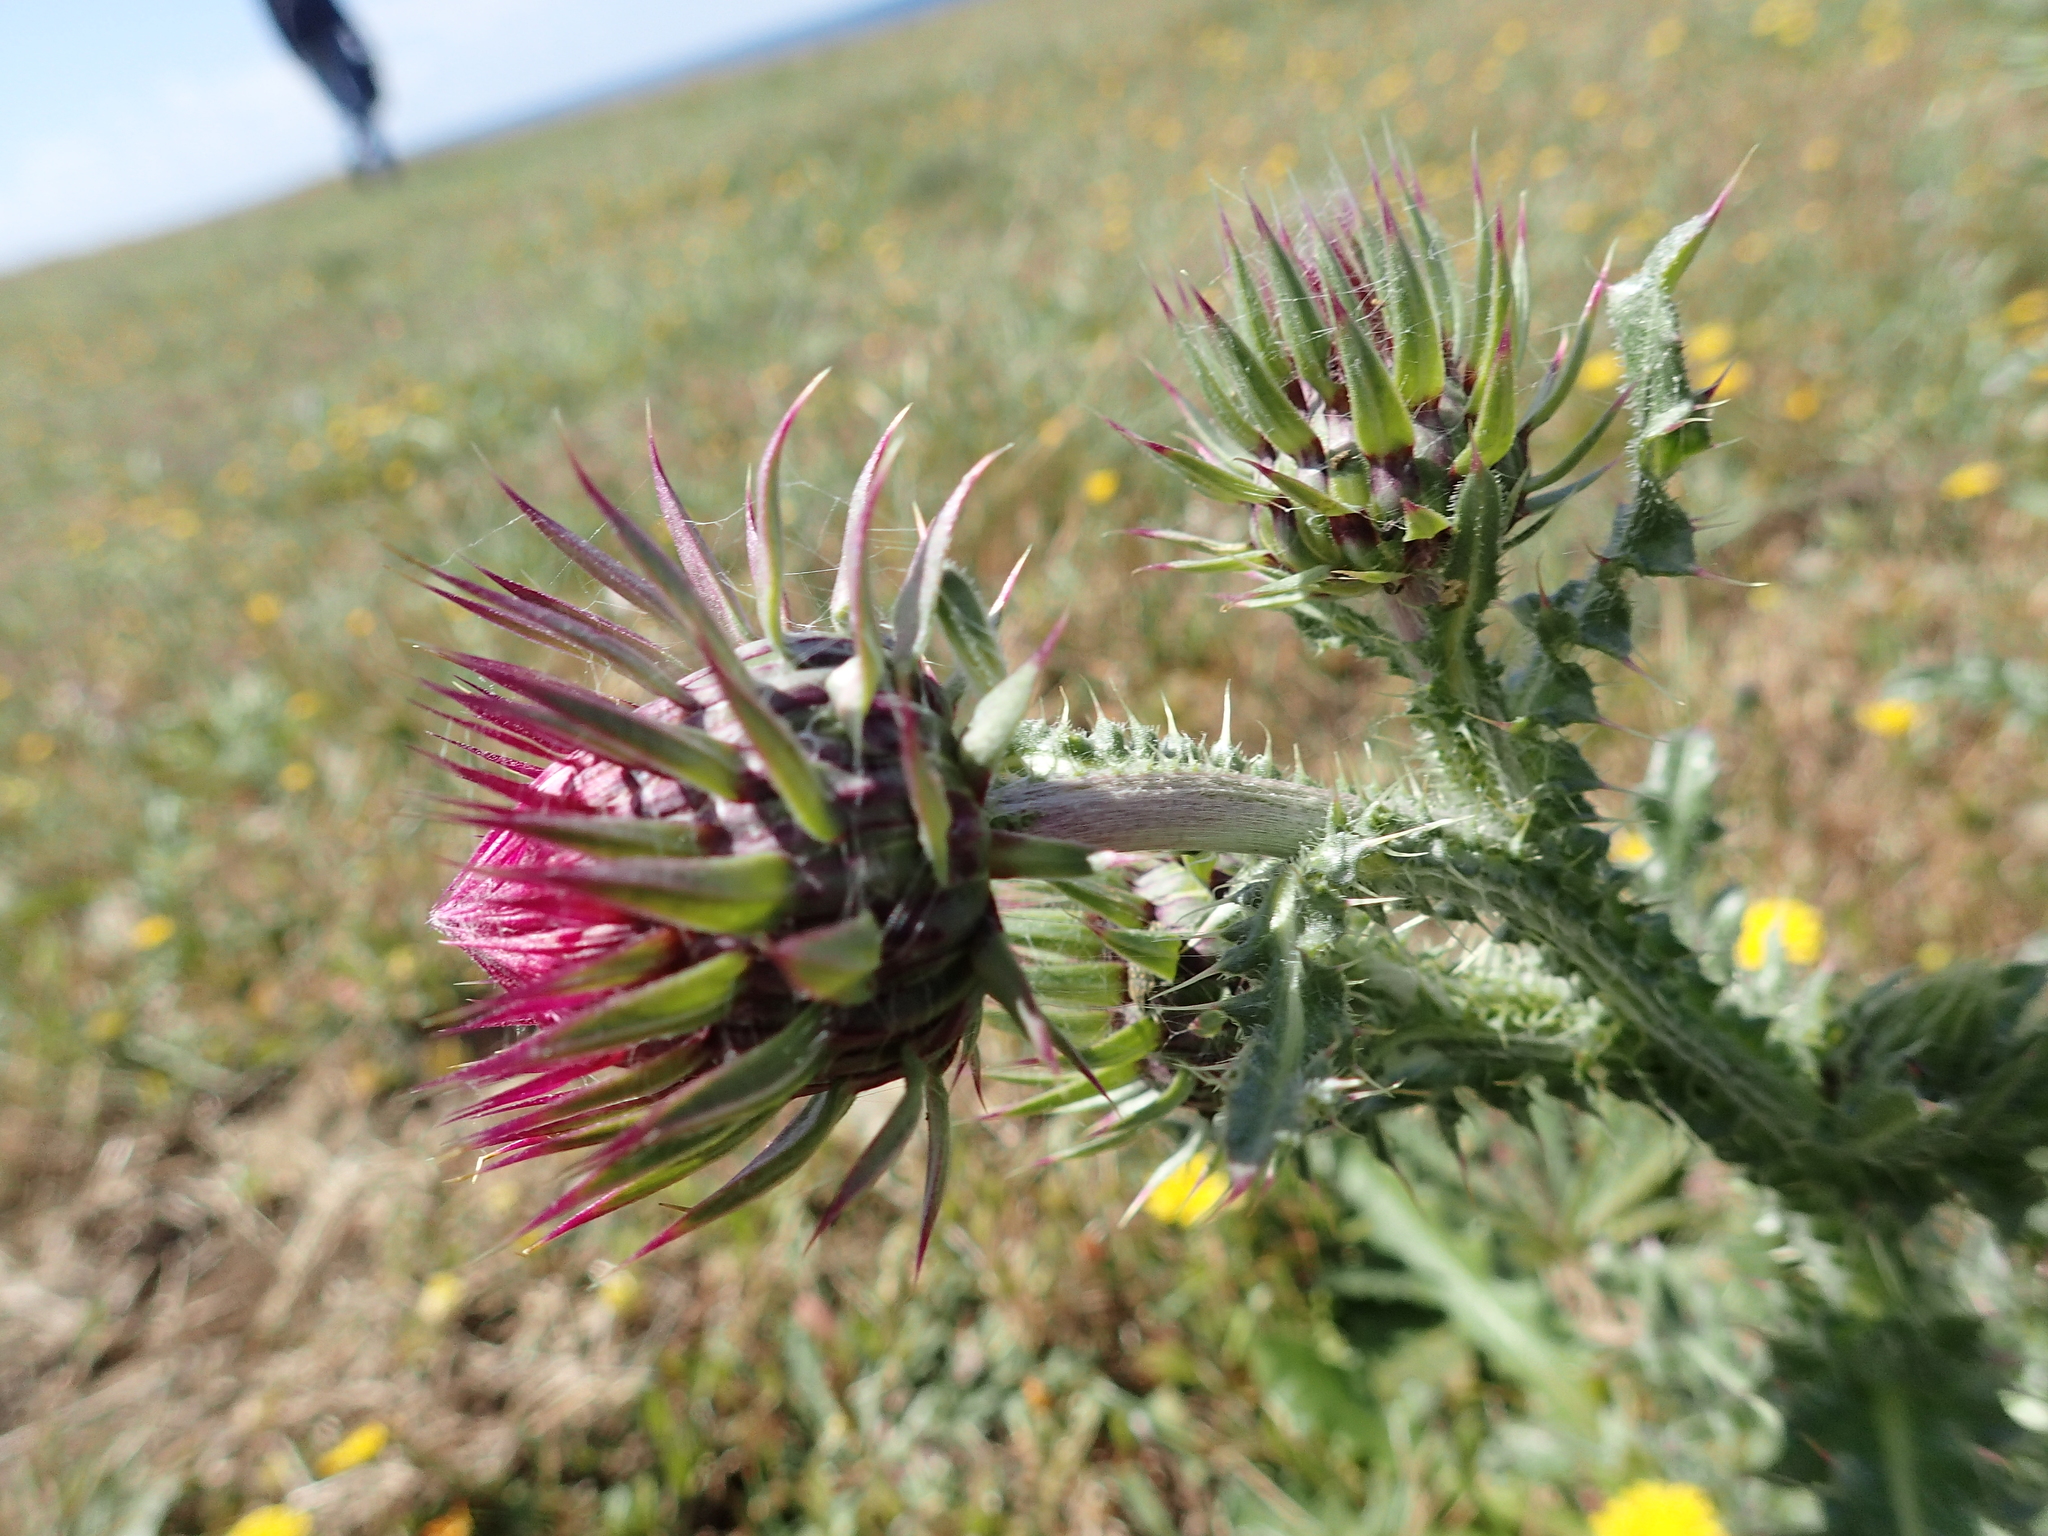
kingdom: Plantae
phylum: Tracheophyta
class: Magnoliopsida
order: Asterales
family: Asteraceae
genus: Carduus
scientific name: Carduus nutans
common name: Musk thistle
